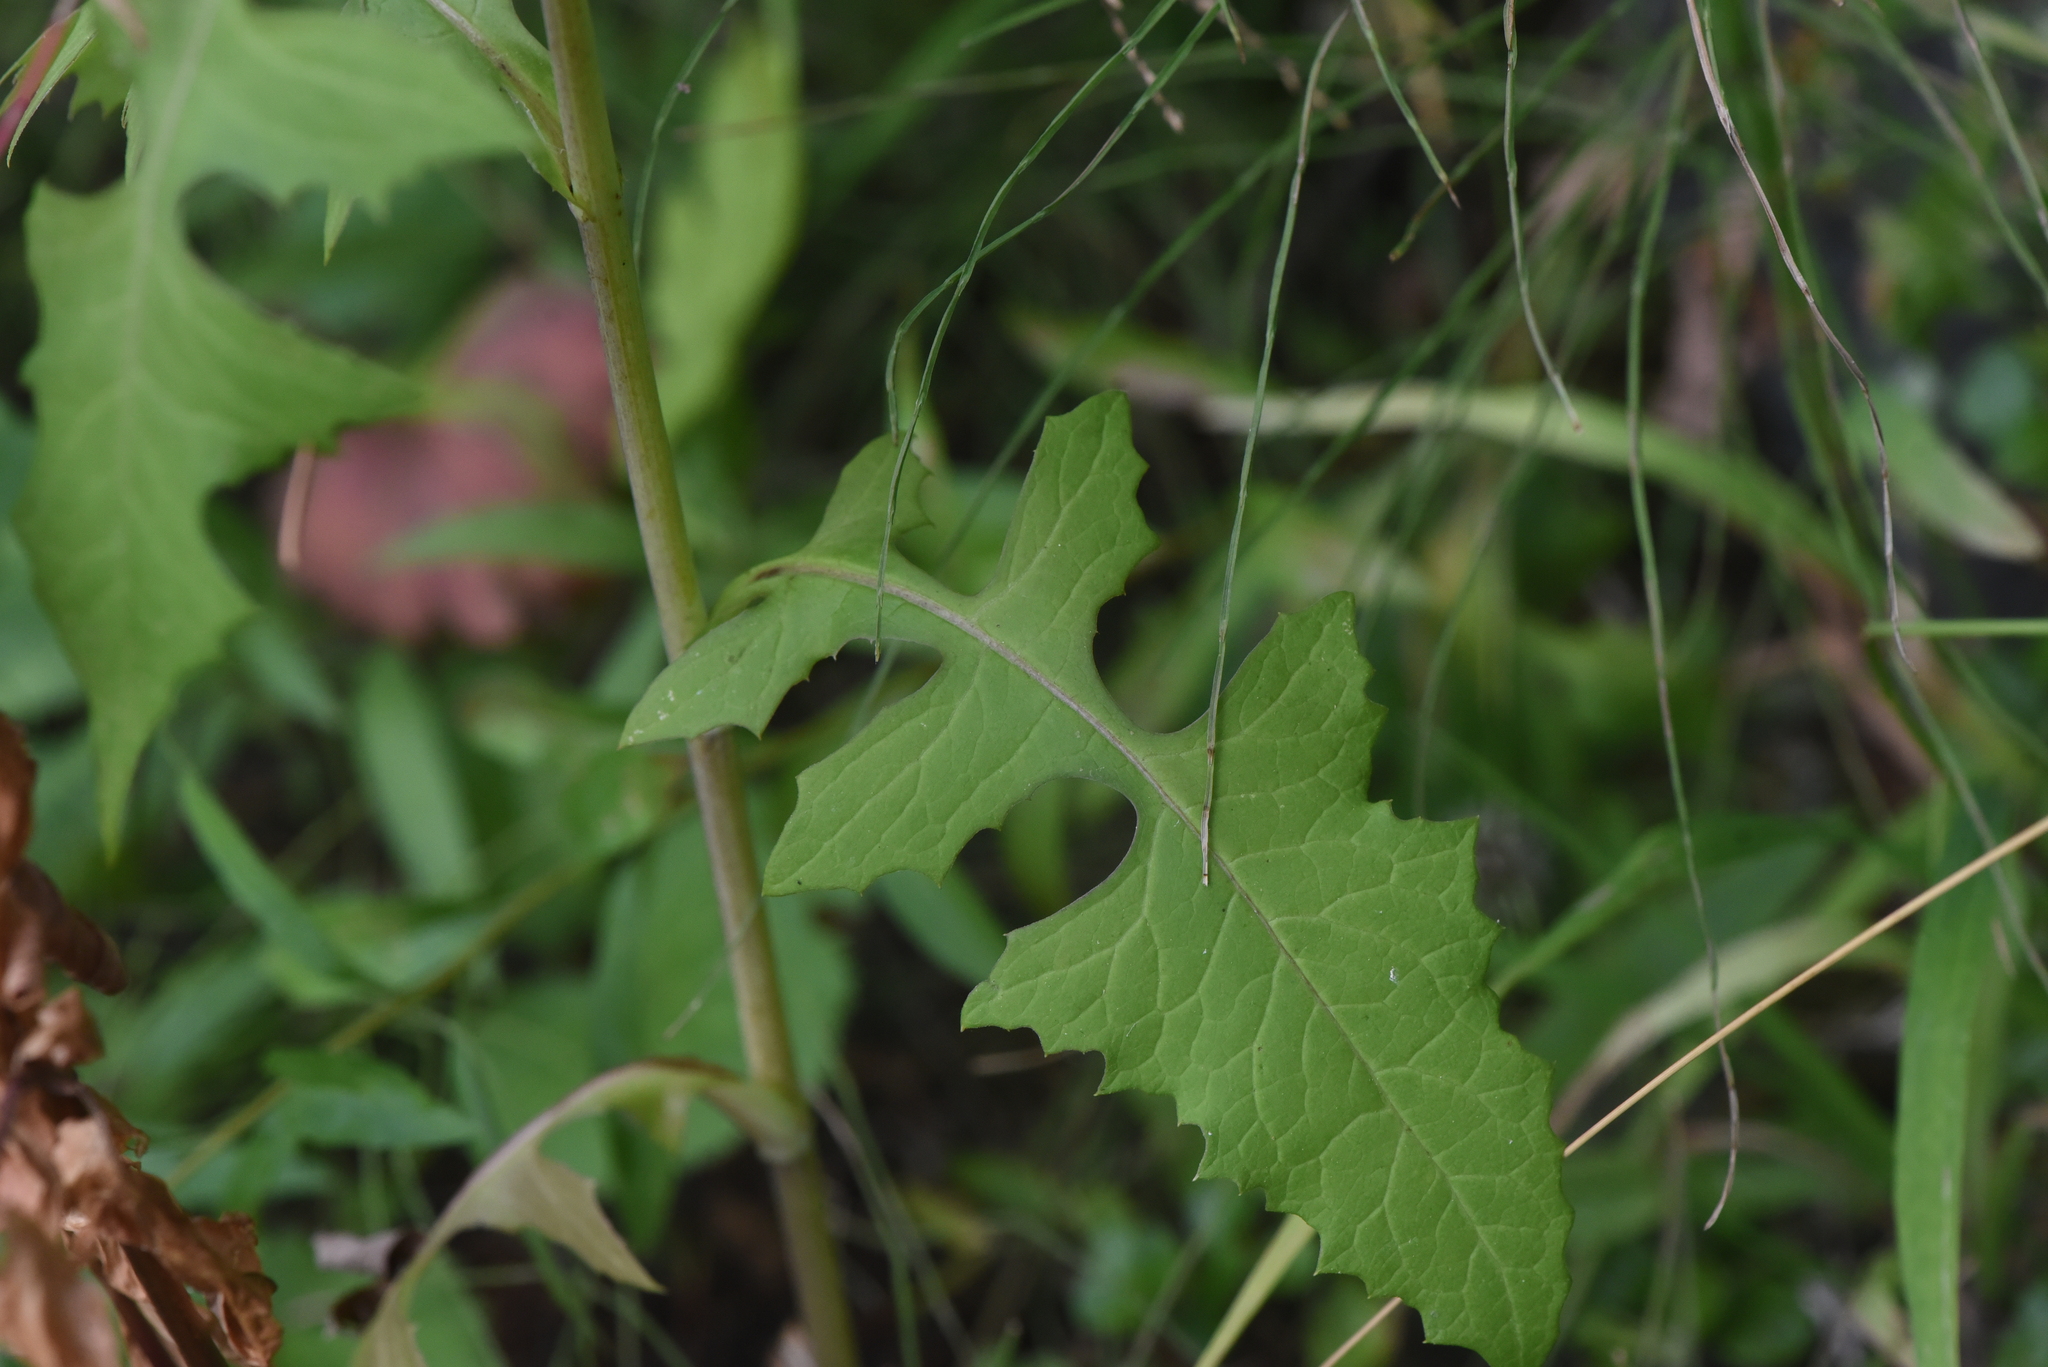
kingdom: Plantae
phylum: Tracheophyta
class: Magnoliopsida
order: Asterales
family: Asteraceae
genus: Lactuca
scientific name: Lactuca biennis
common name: Blue wood lettuce
